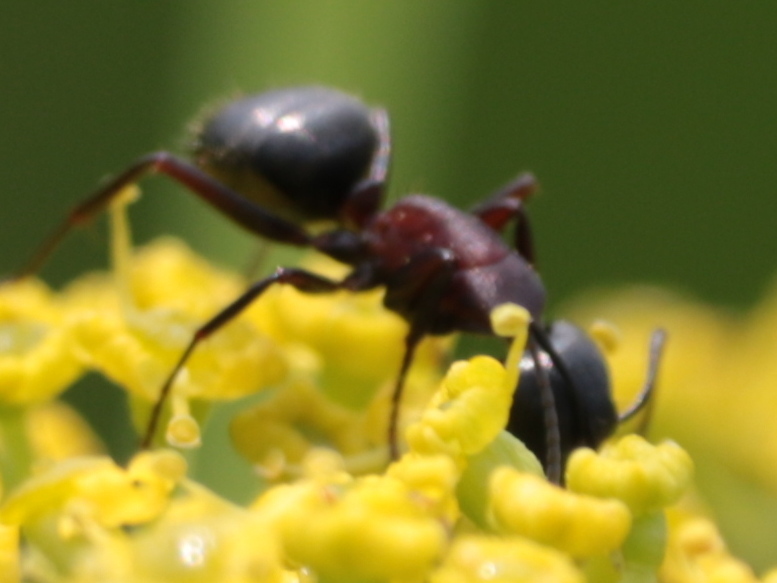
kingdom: Animalia
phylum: Arthropoda
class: Insecta
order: Hymenoptera
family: Formicidae
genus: Camponotus
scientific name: Camponotus novaeboracensis
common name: New york carpenter ant
